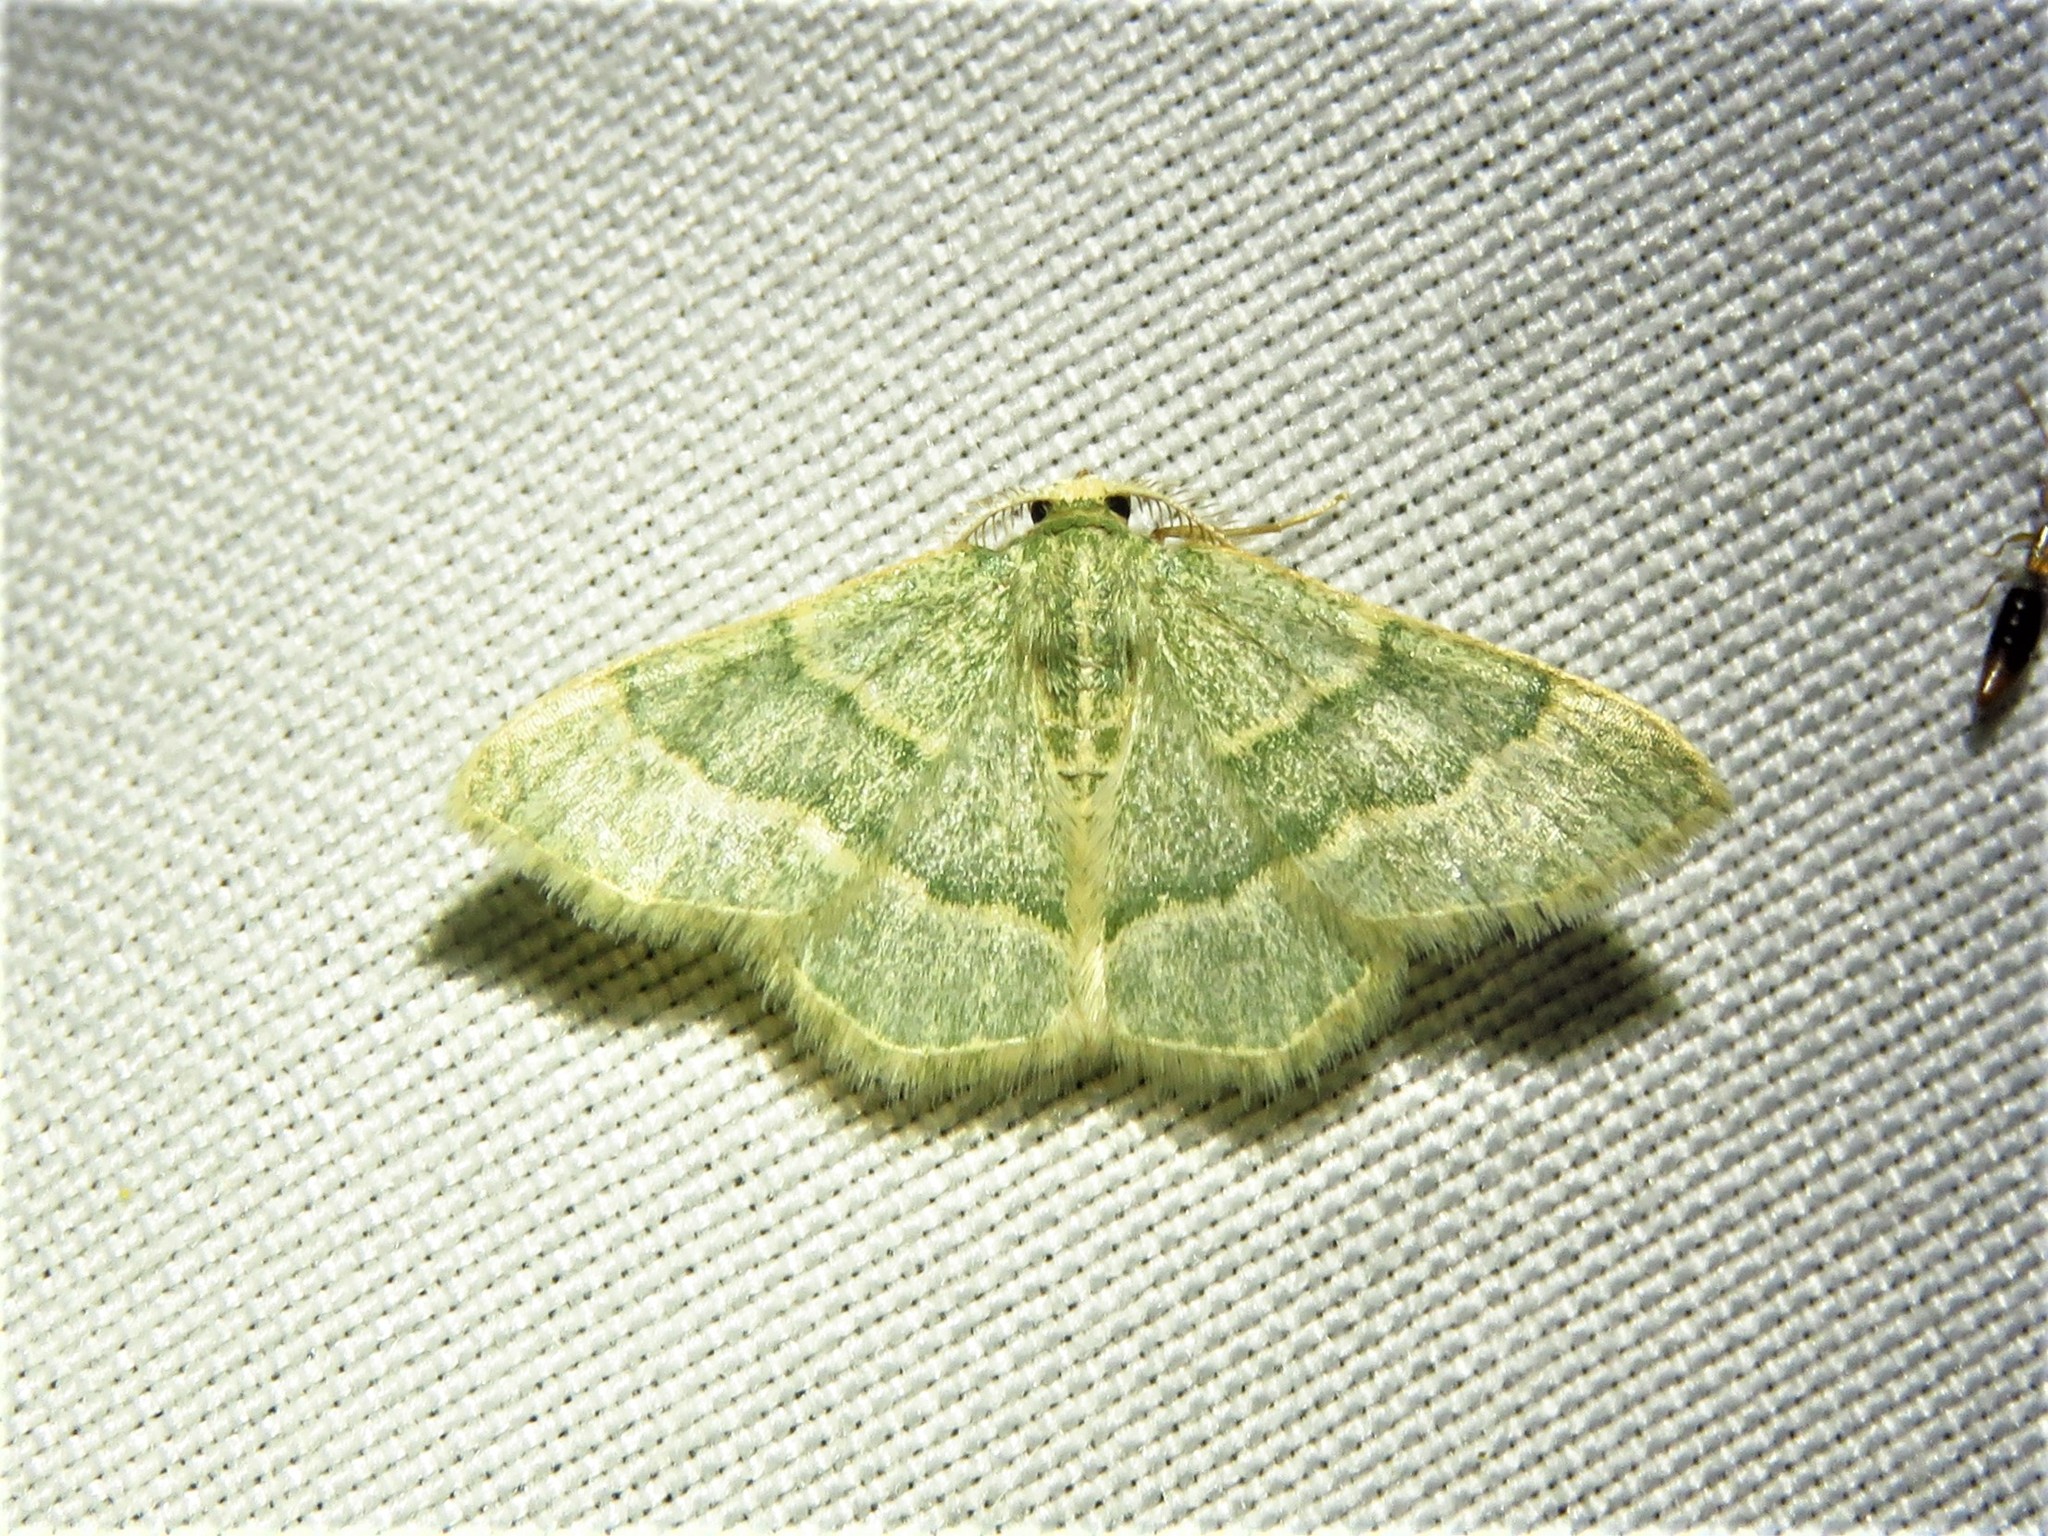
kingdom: Animalia
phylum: Arthropoda
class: Insecta
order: Lepidoptera
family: Geometridae
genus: Chlorochlamys
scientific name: Chlorochlamys appellaria
